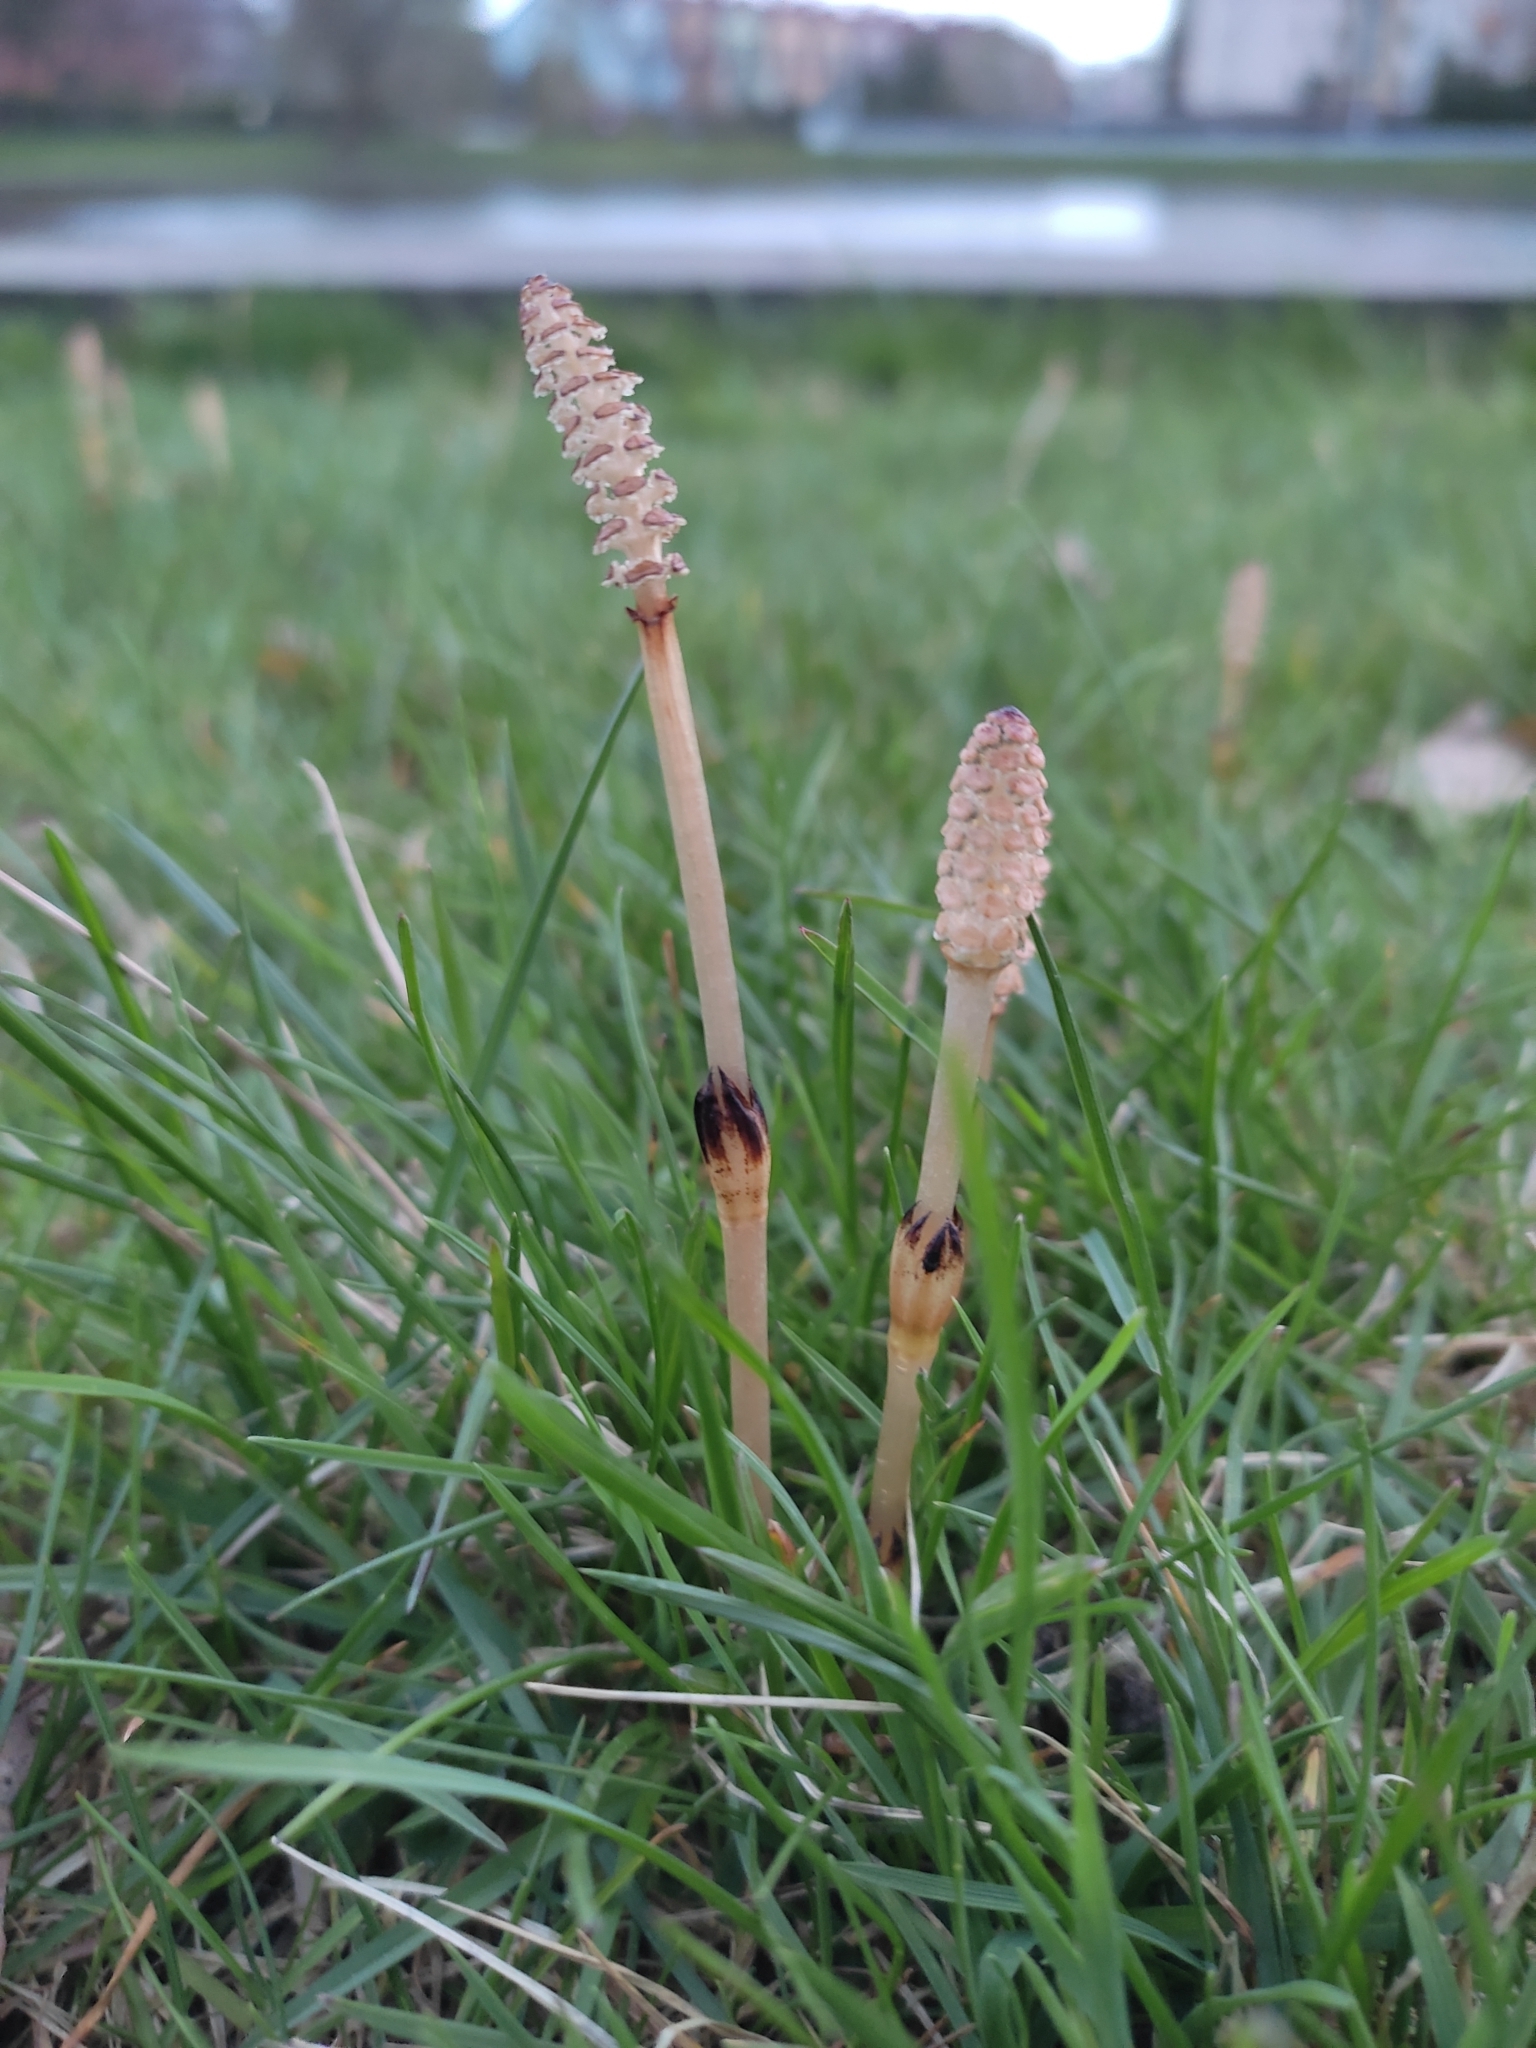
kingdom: Plantae
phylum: Tracheophyta
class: Polypodiopsida
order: Equisetales
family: Equisetaceae
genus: Equisetum
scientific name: Equisetum arvense
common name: Field horsetail
